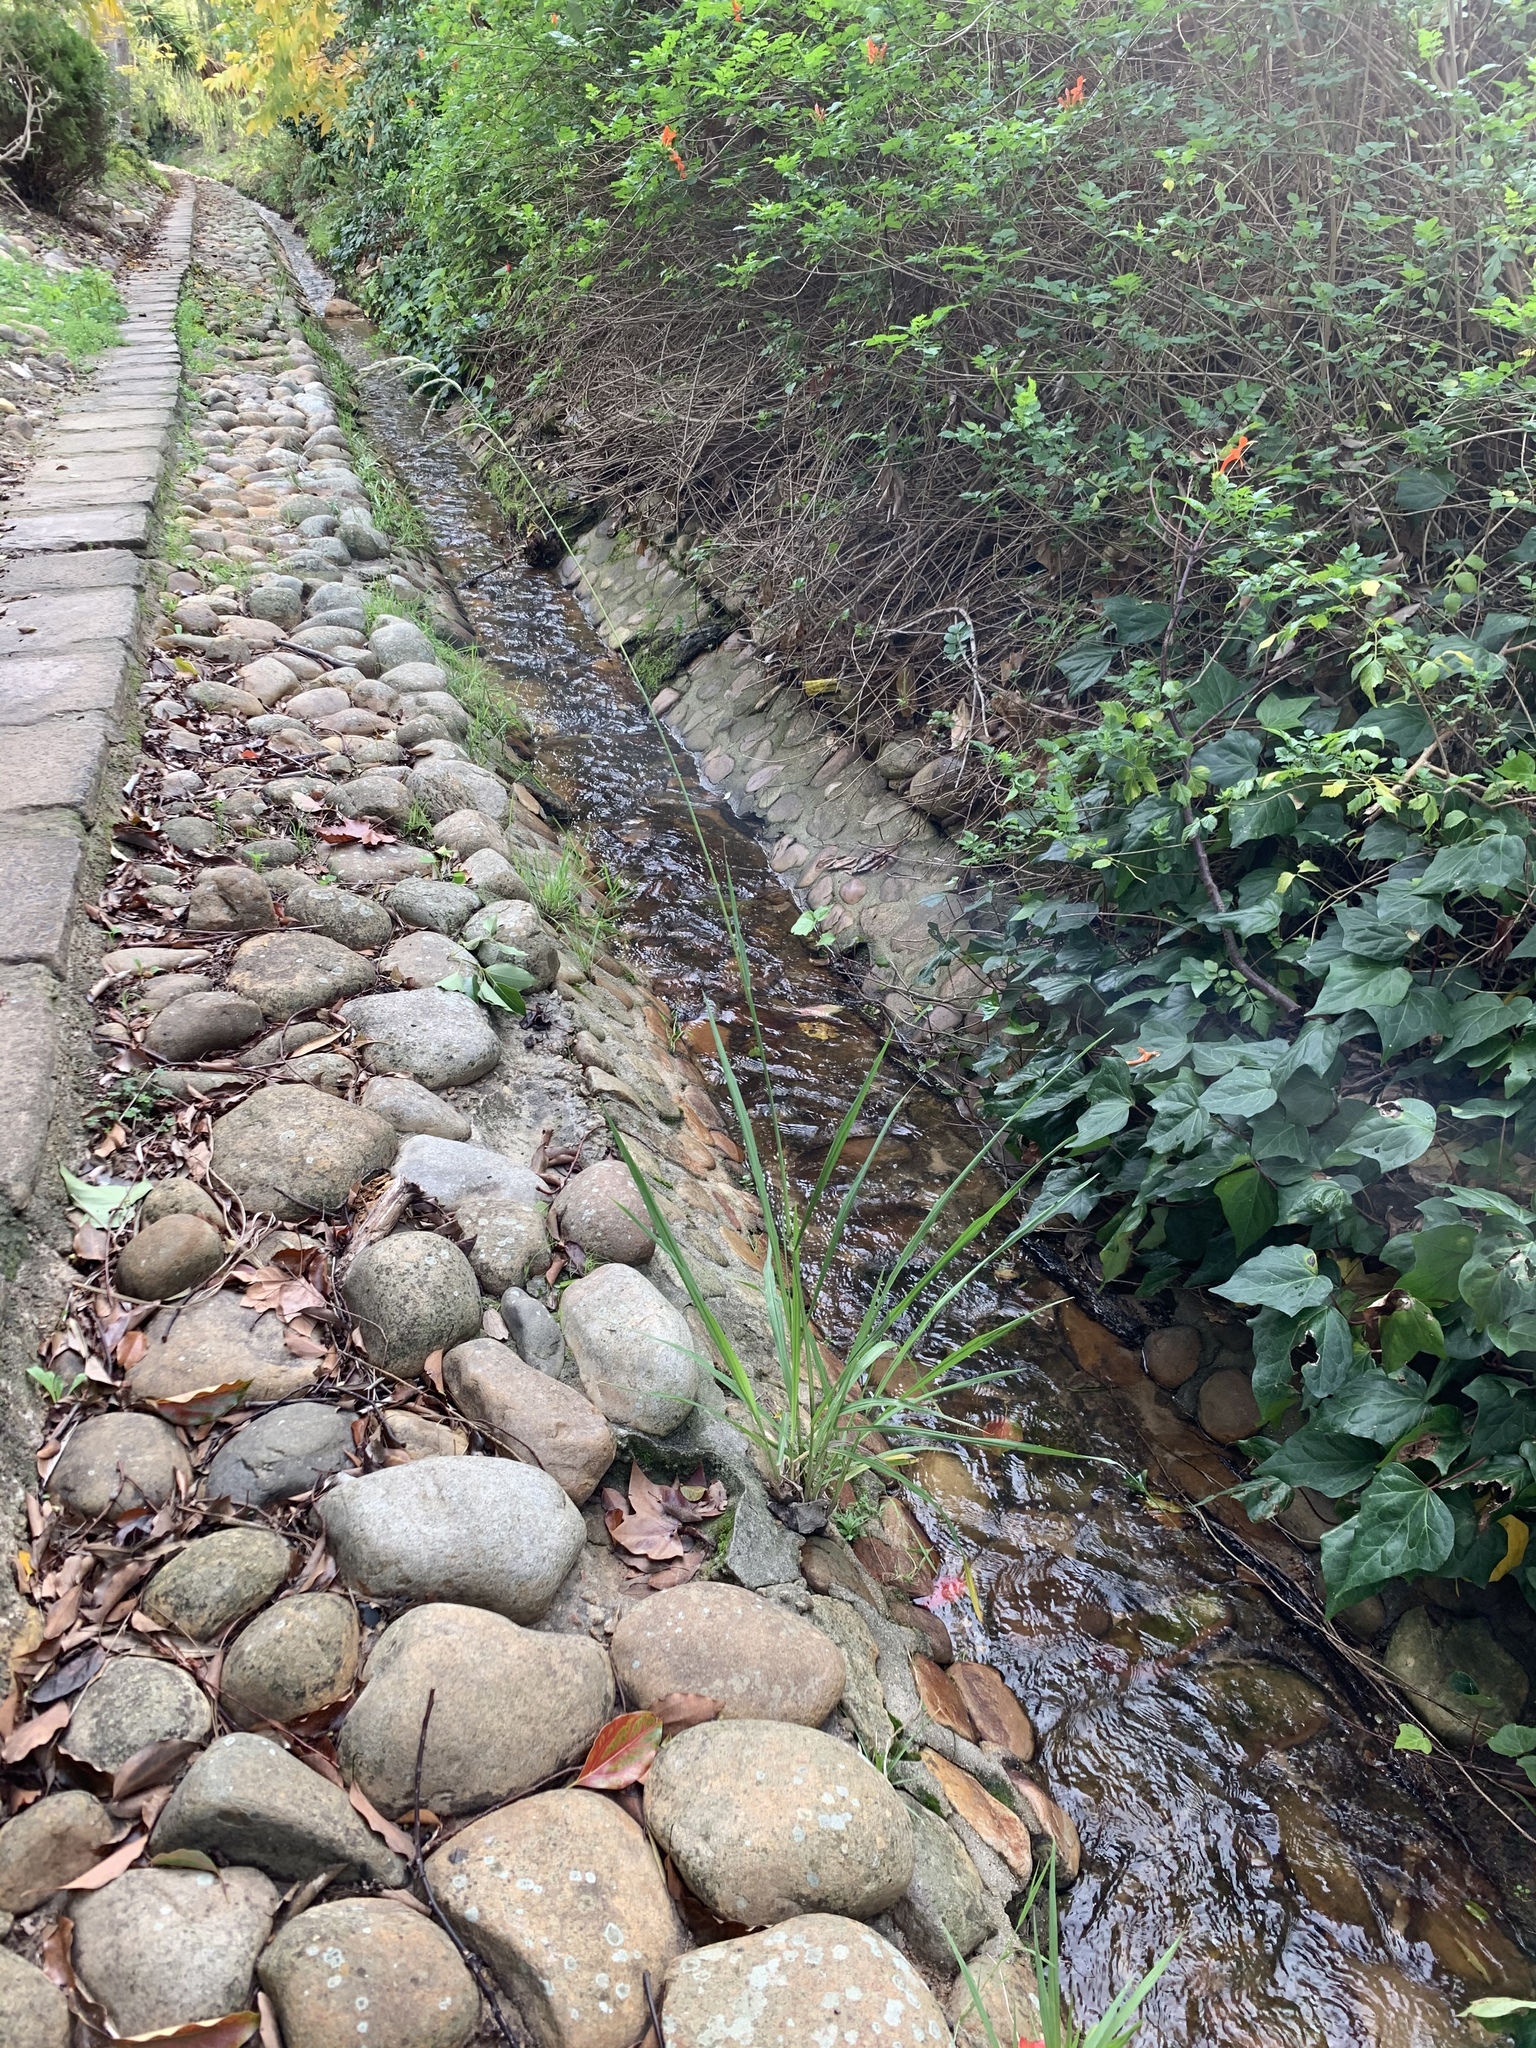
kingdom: Plantae
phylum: Tracheophyta
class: Liliopsida
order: Poales
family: Poaceae
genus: Paspalum
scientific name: Paspalum urvillei
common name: Vasey's grass
